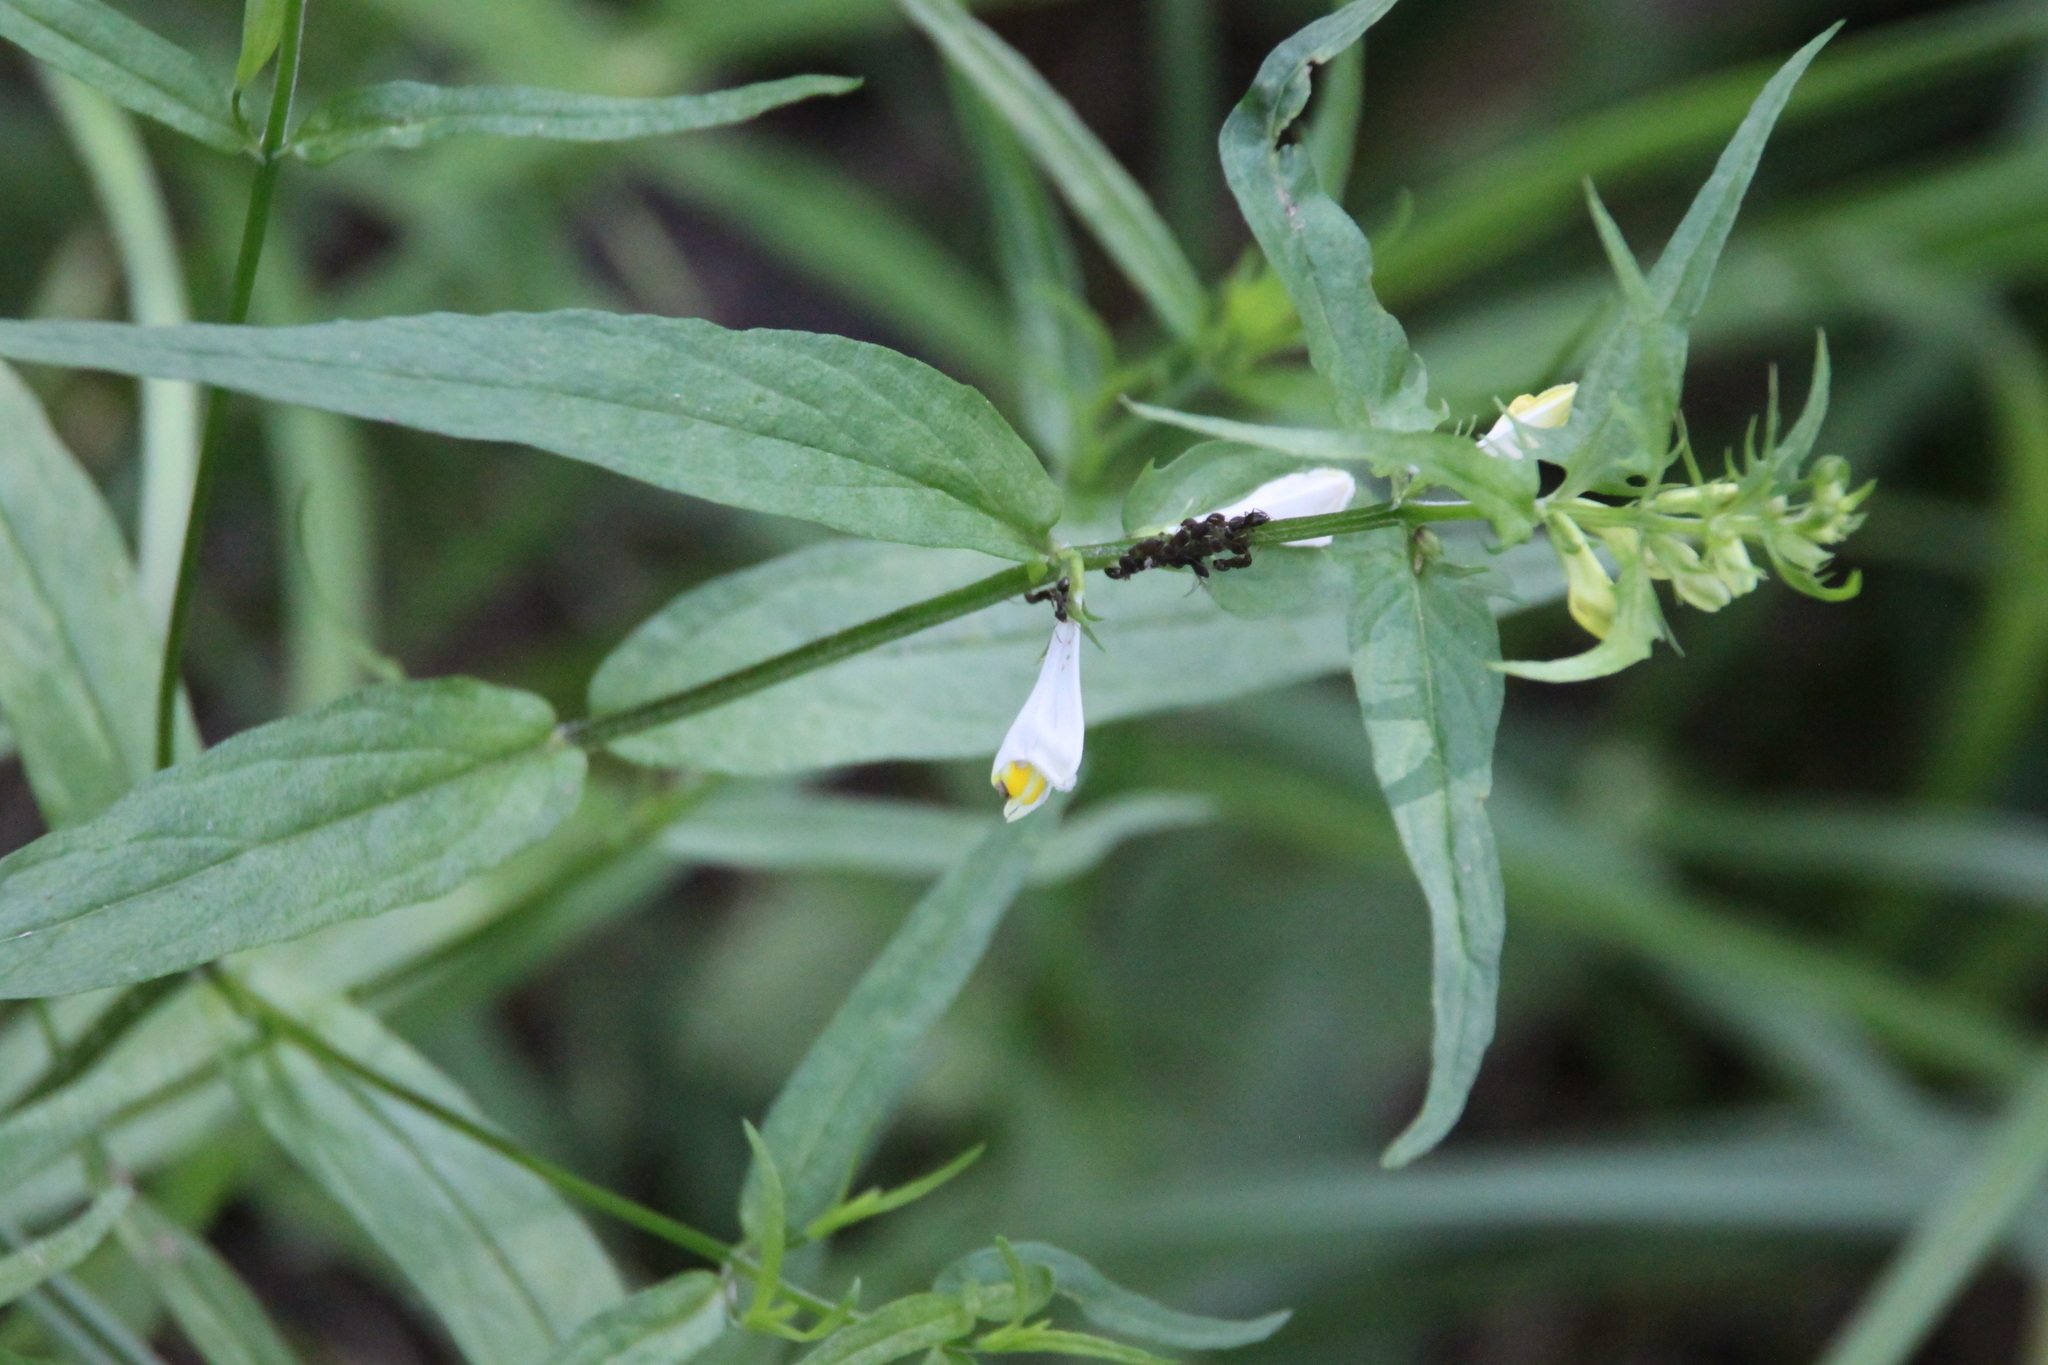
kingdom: Plantae
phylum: Tracheophyta
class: Magnoliopsida
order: Lamiales
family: Orobanchaceae
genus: Melampyrum
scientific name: Melampyrum pratense
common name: Common cow-wheat
